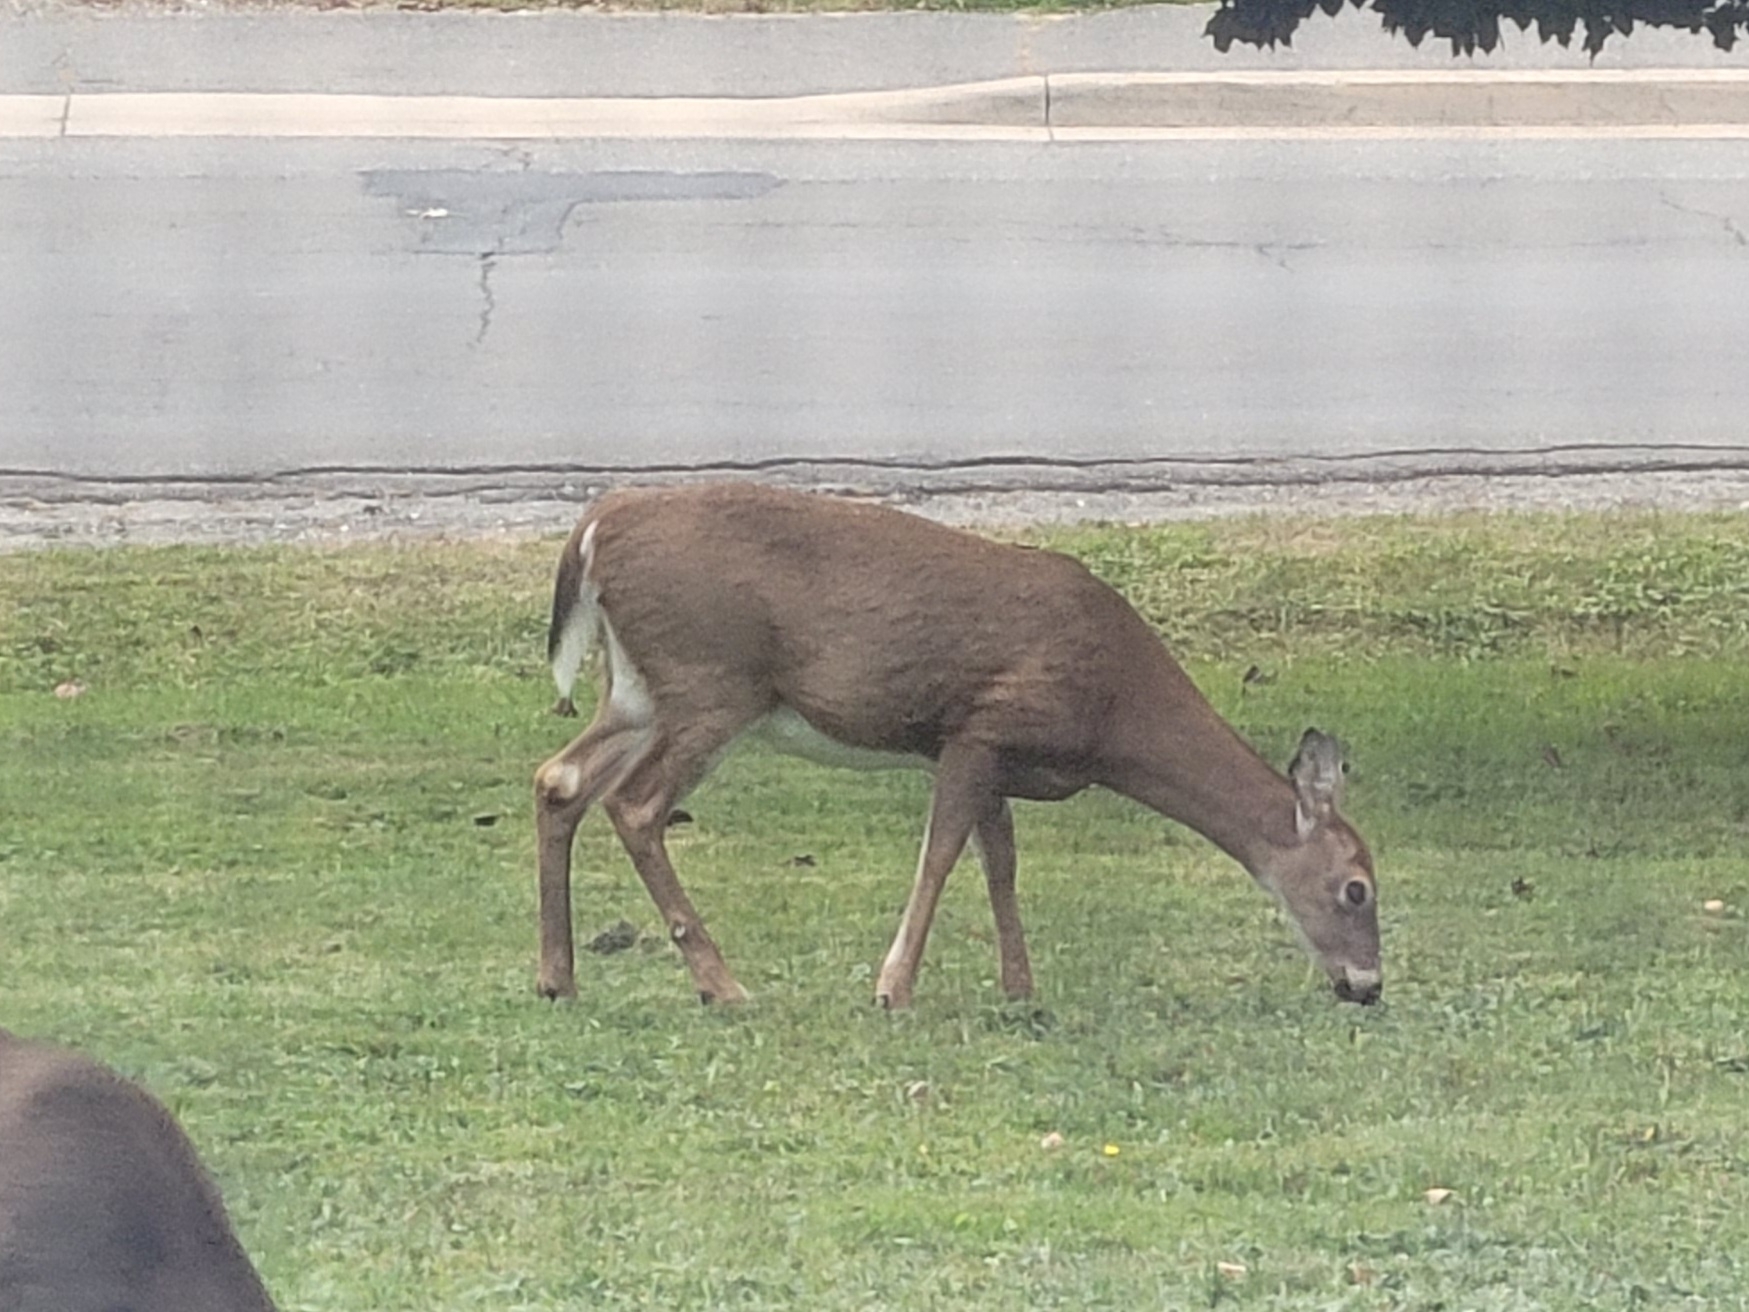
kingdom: Animalia
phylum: Chordata
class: Mammalia
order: Artiodactyla
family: Cervidae
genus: Odocoileus
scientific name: Odocoileus virginianus
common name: White-tailed deer
